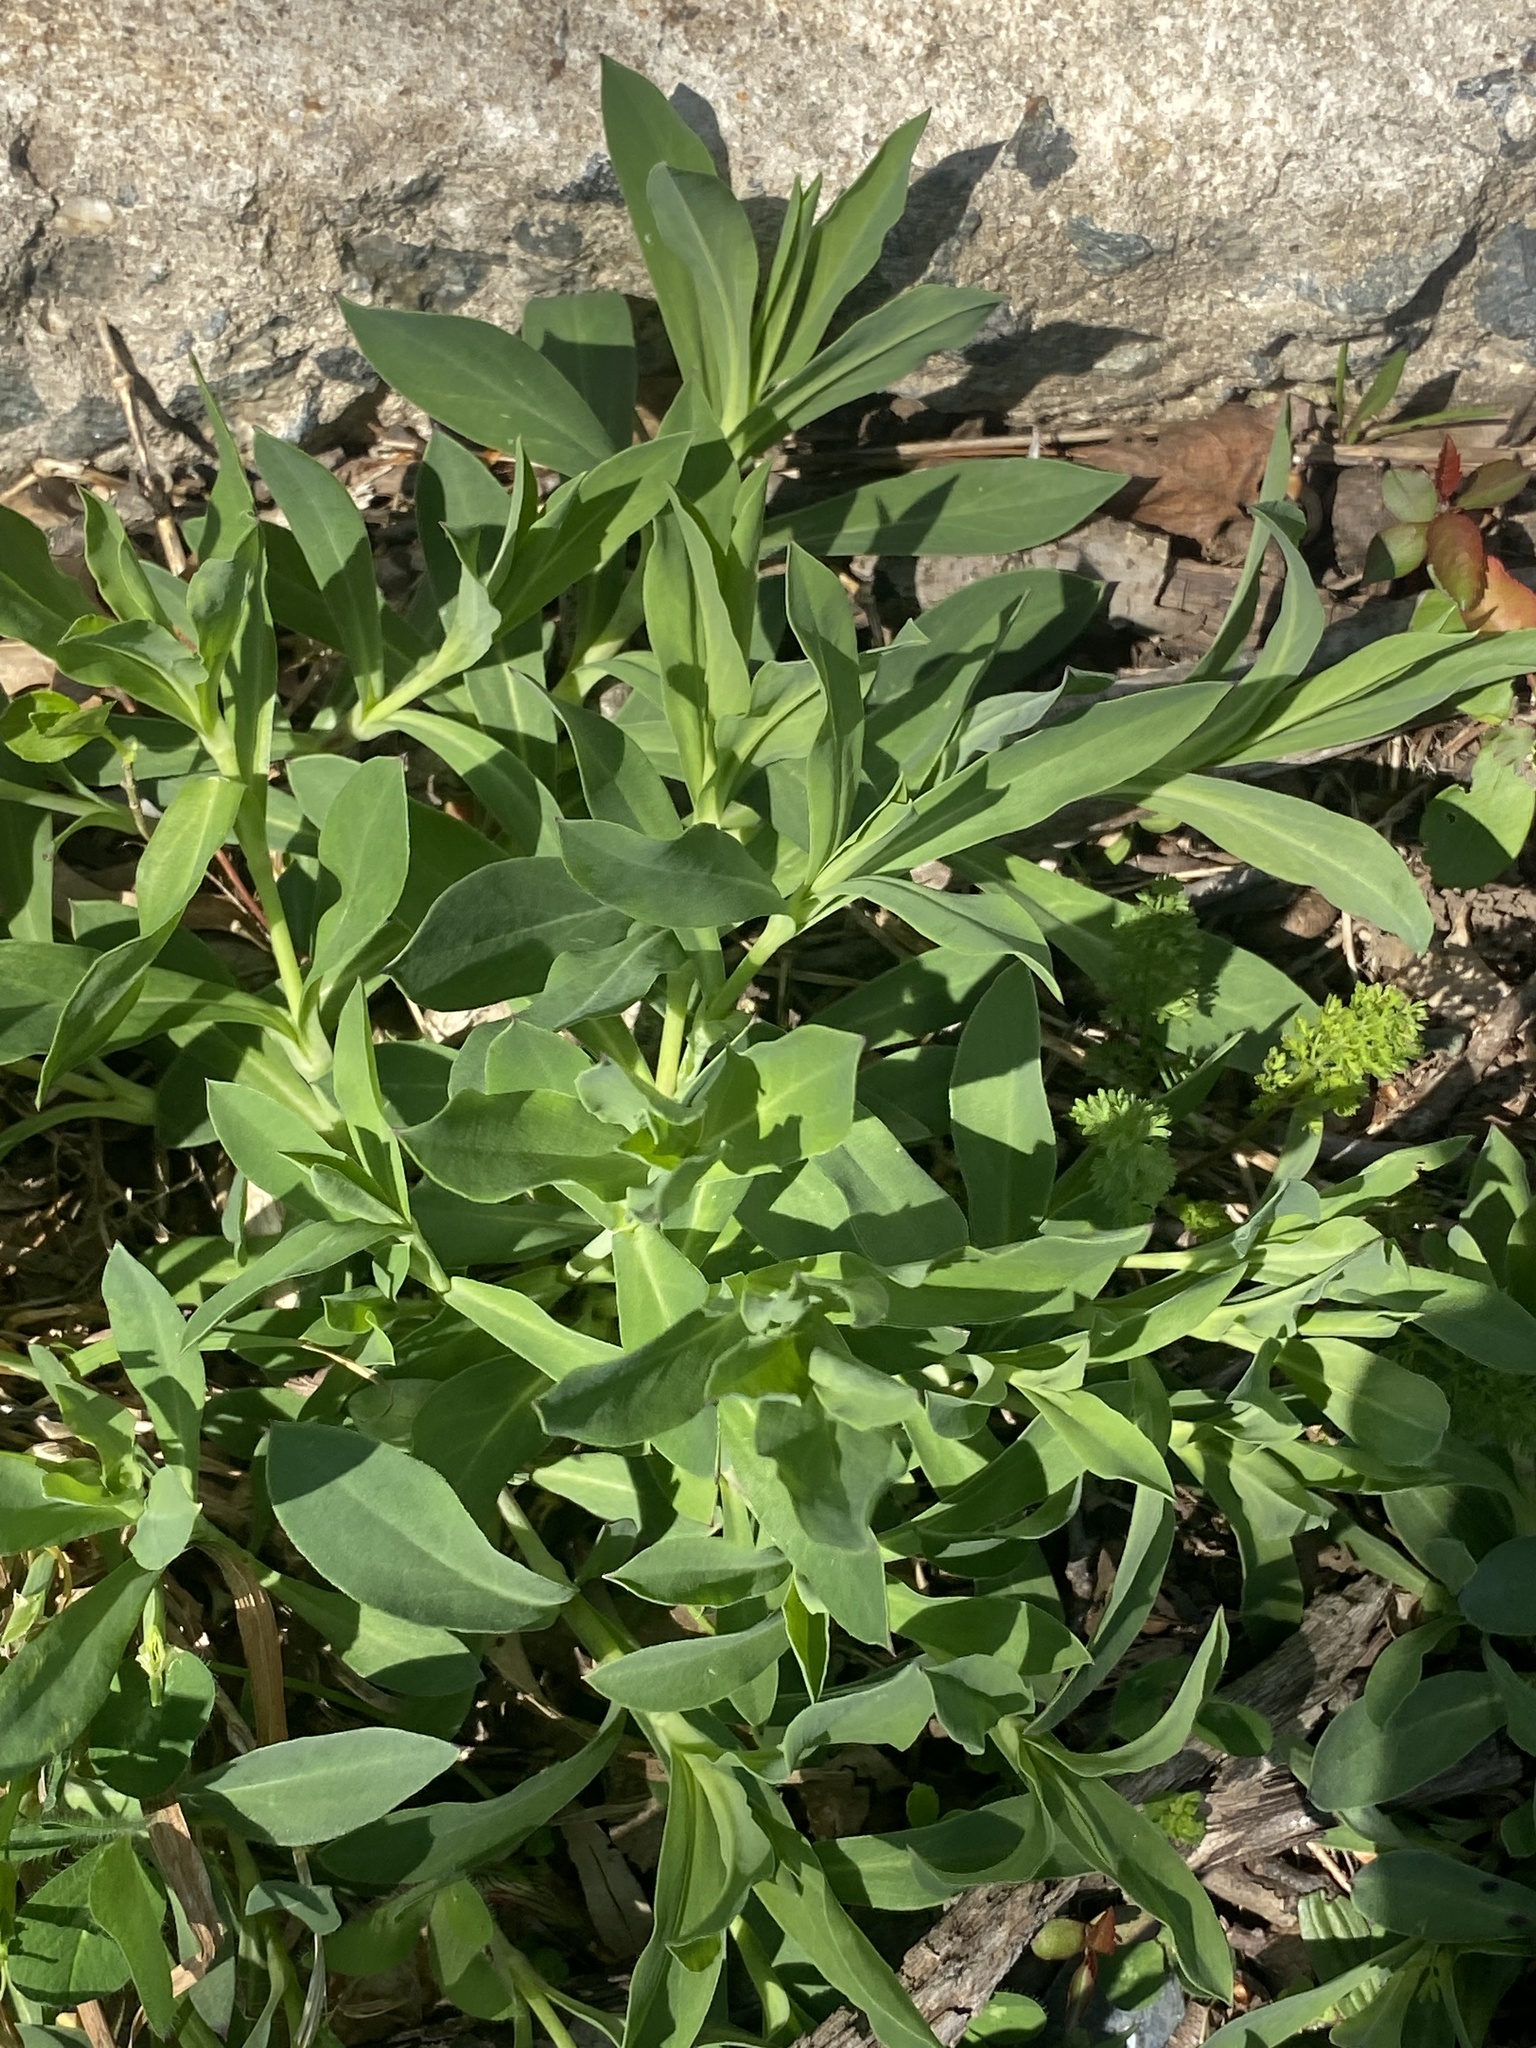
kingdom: Plantae
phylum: Tracheophyta
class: Magnoliopsida
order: Caryophyllales
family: Caryophyllaceae
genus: Silene
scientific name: Silene vulgaris
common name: Bladder campion
